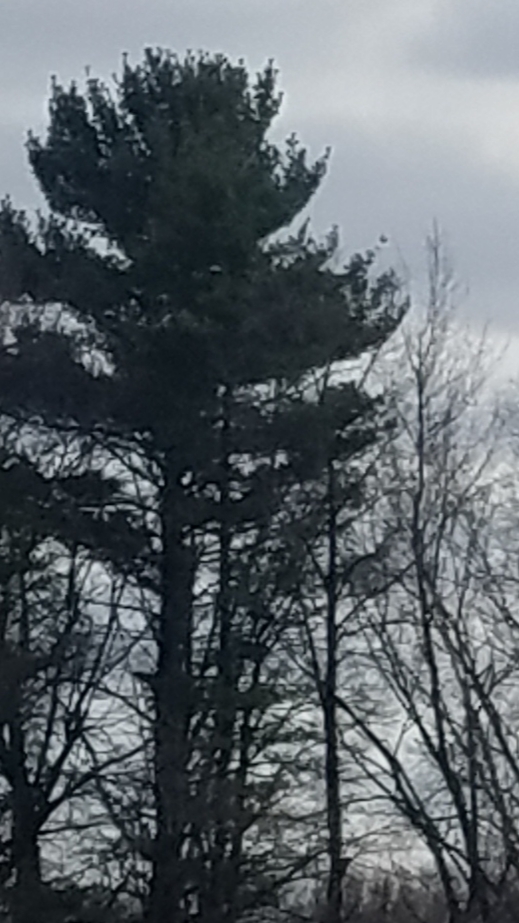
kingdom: Plantae
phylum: Tracheophyta
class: Pinopsida
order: Pinales
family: Pinaceae
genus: Pinus
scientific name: Pinus strobus
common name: Weymouth pine
